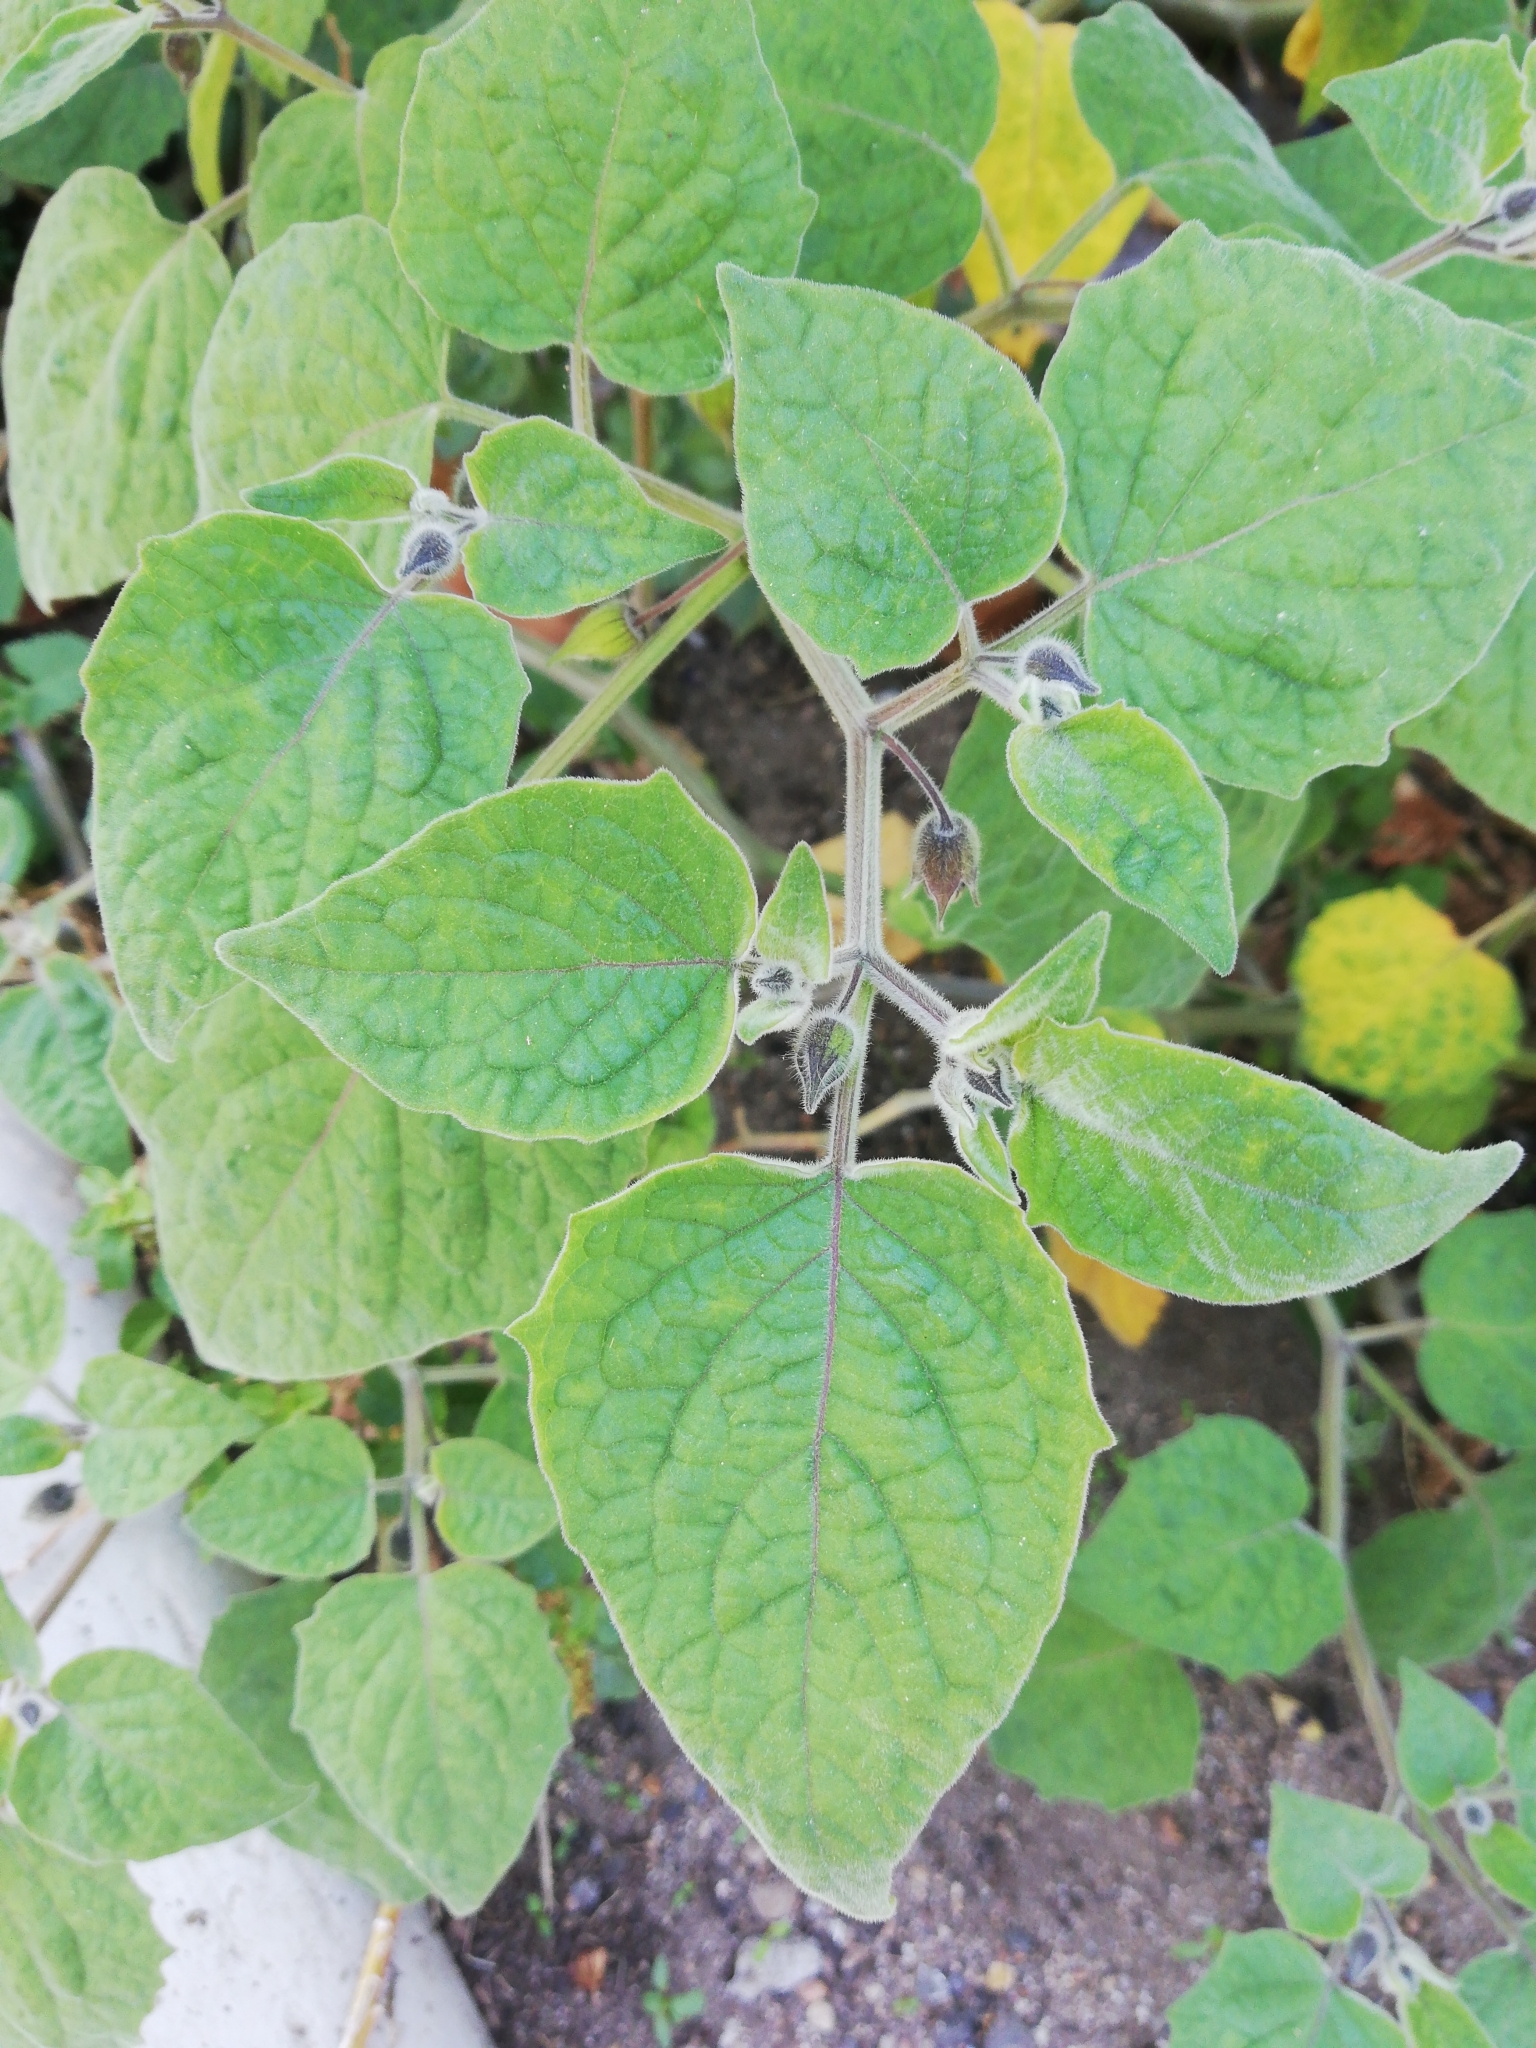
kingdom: Plantae
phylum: Tracheophyta
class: Magnoliopsida
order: Solanales
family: Solanaceae
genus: Physalis
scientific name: Physalis peruviana
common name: Cape-gooseberry
